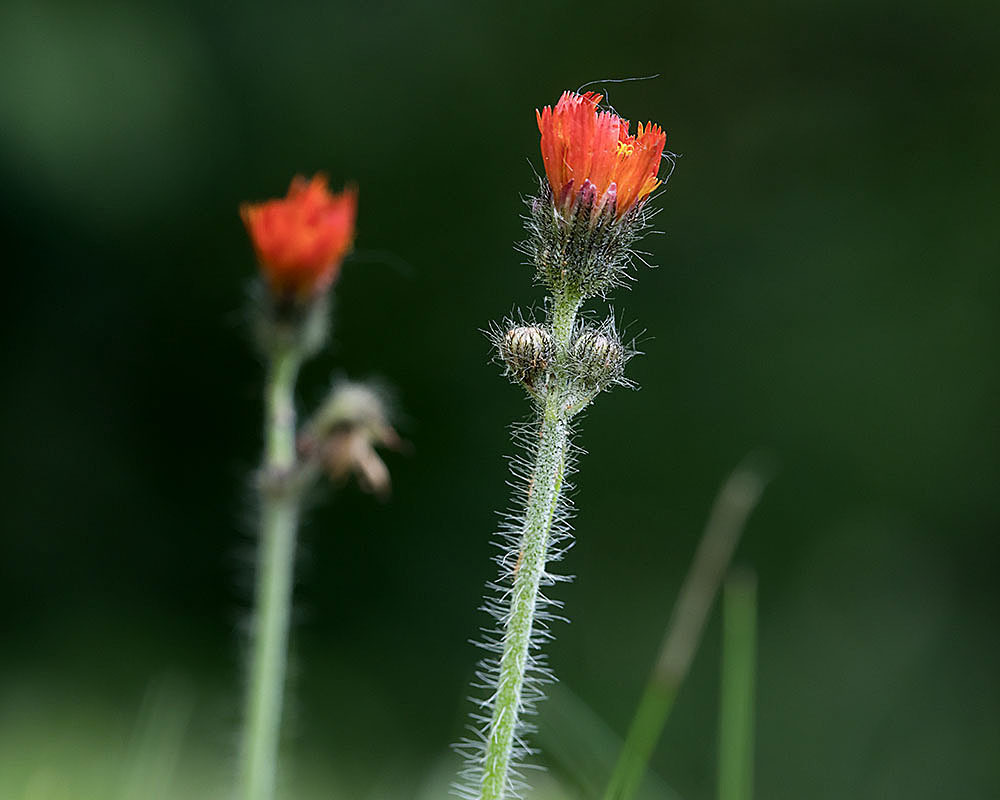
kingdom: Plantae
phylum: Tracheophyta
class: Magnoliopsida
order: Asterales
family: Asteraceae
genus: Pilosella
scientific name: Pilosella aurantiaca
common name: Fox-and-cubs
